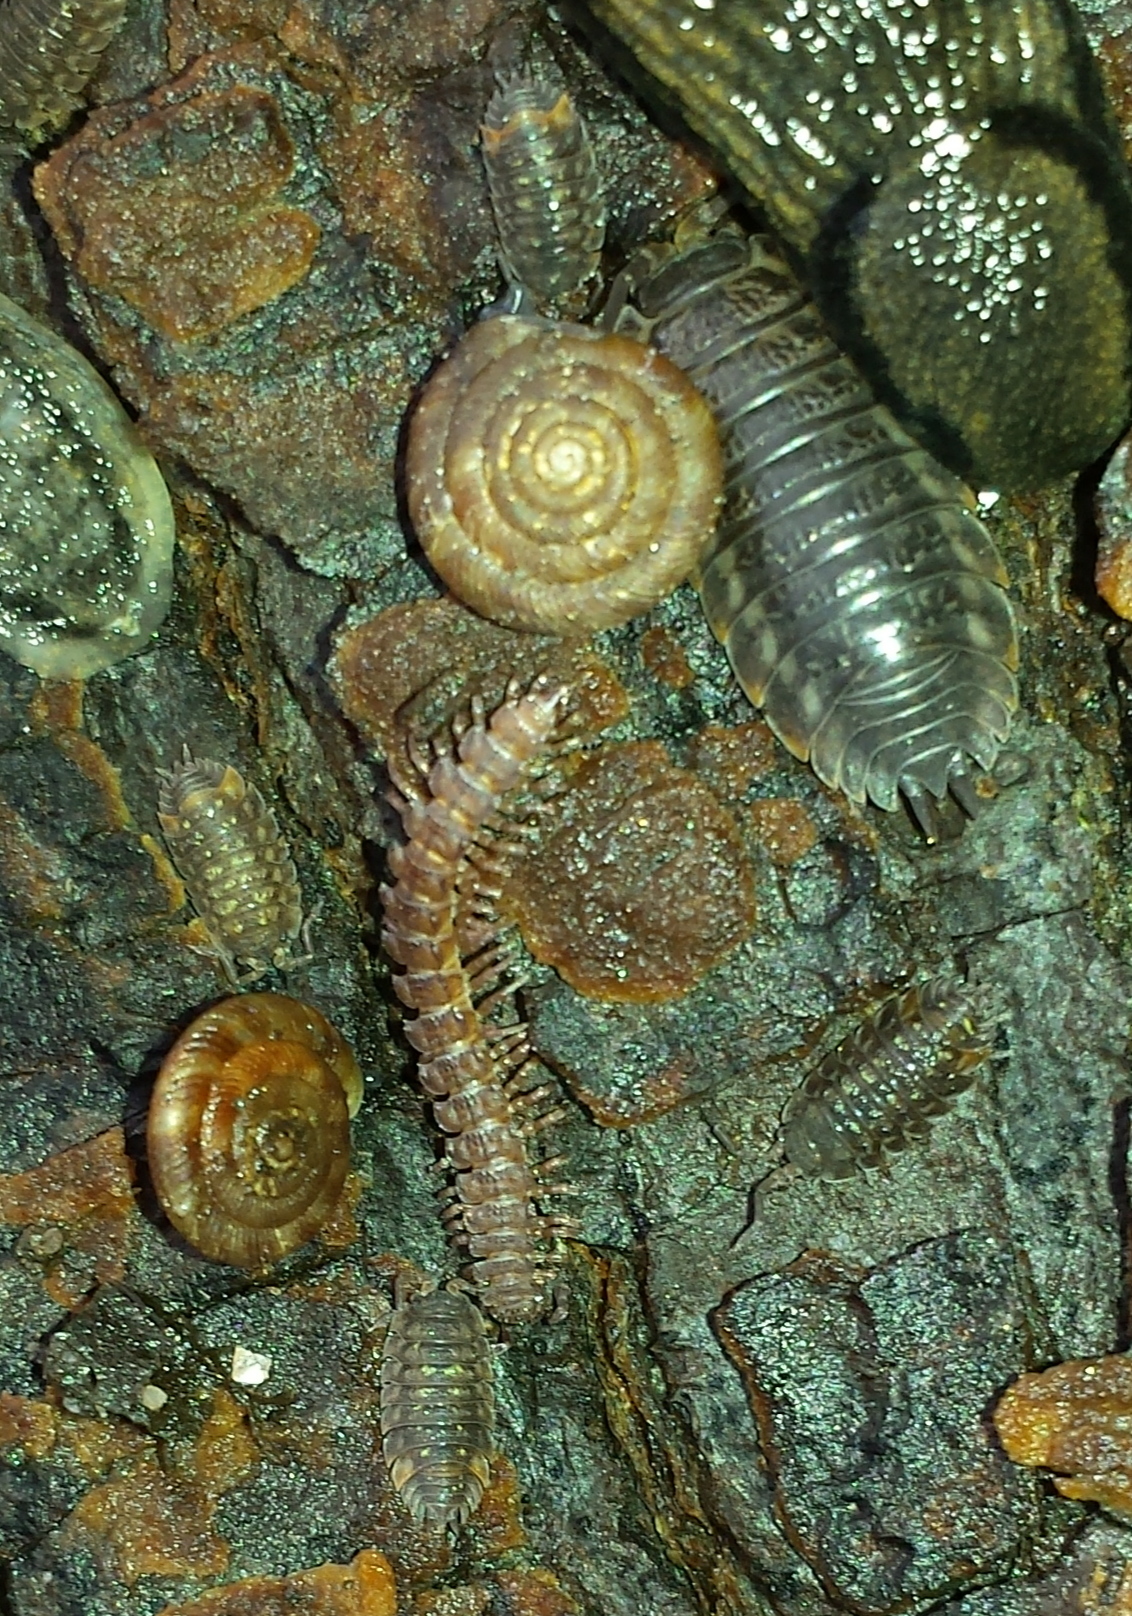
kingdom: Animalia
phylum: Arthropoda
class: Malacostraca
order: Isopoda
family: Trachelipodidae
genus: Trachelipus
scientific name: Trachelipus rathkii
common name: Isopod
